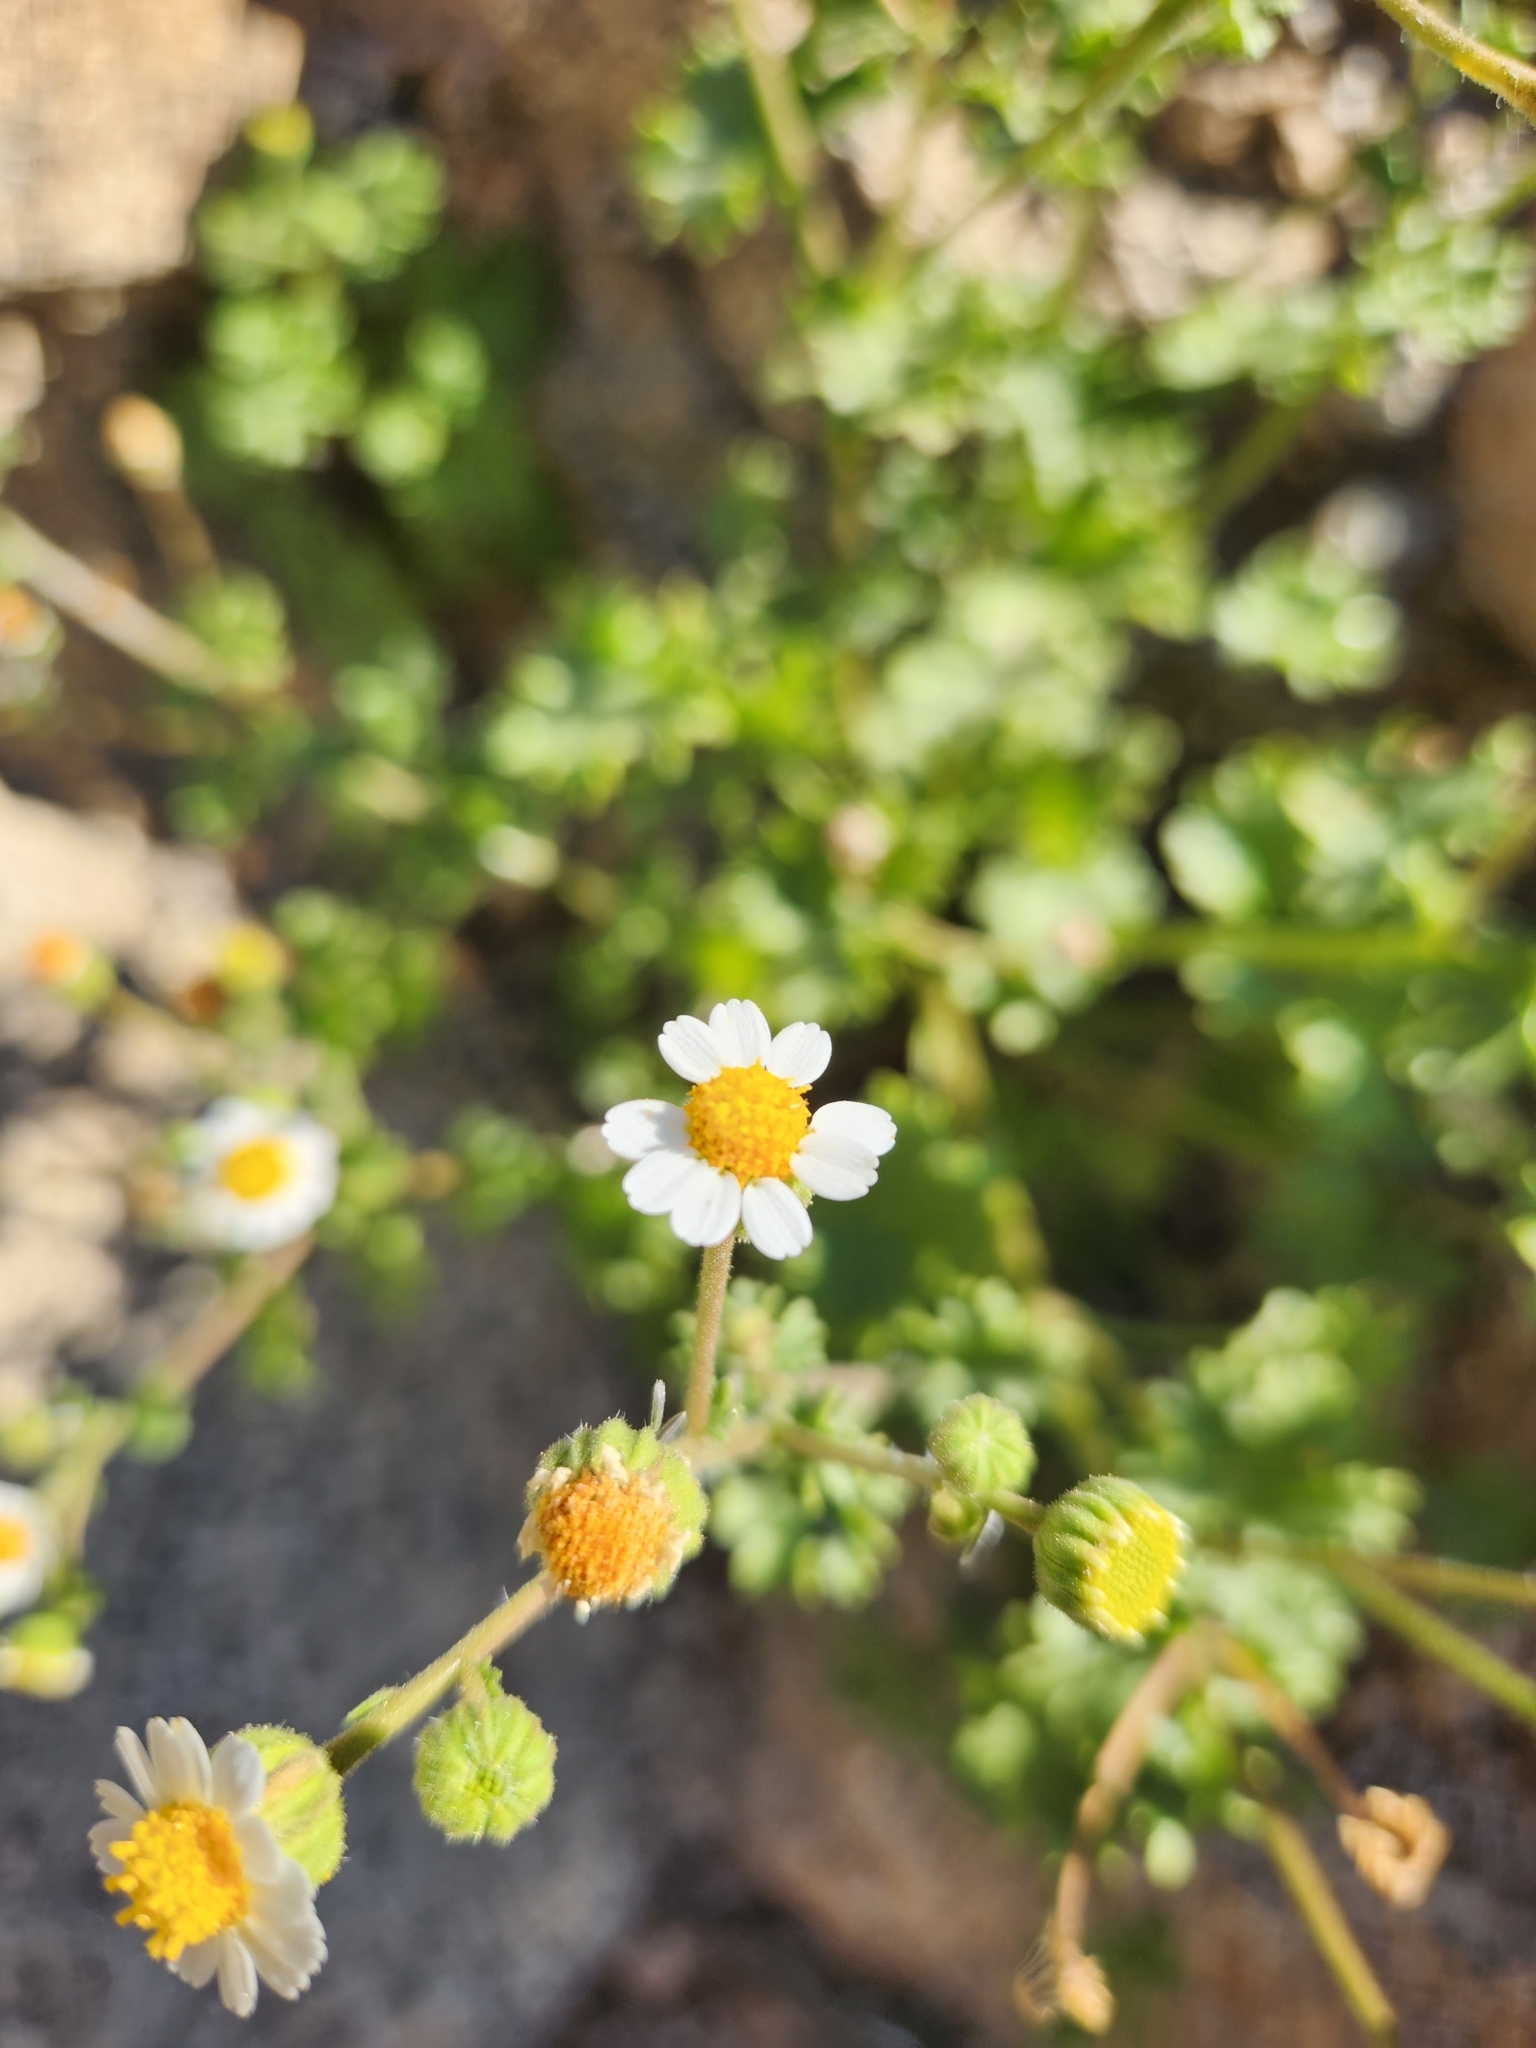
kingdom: Plantae
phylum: Tracheophyta
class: Magnoliopsida
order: Asterales
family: Asteraceae
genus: Laphamia
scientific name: Laphamia emoryi
